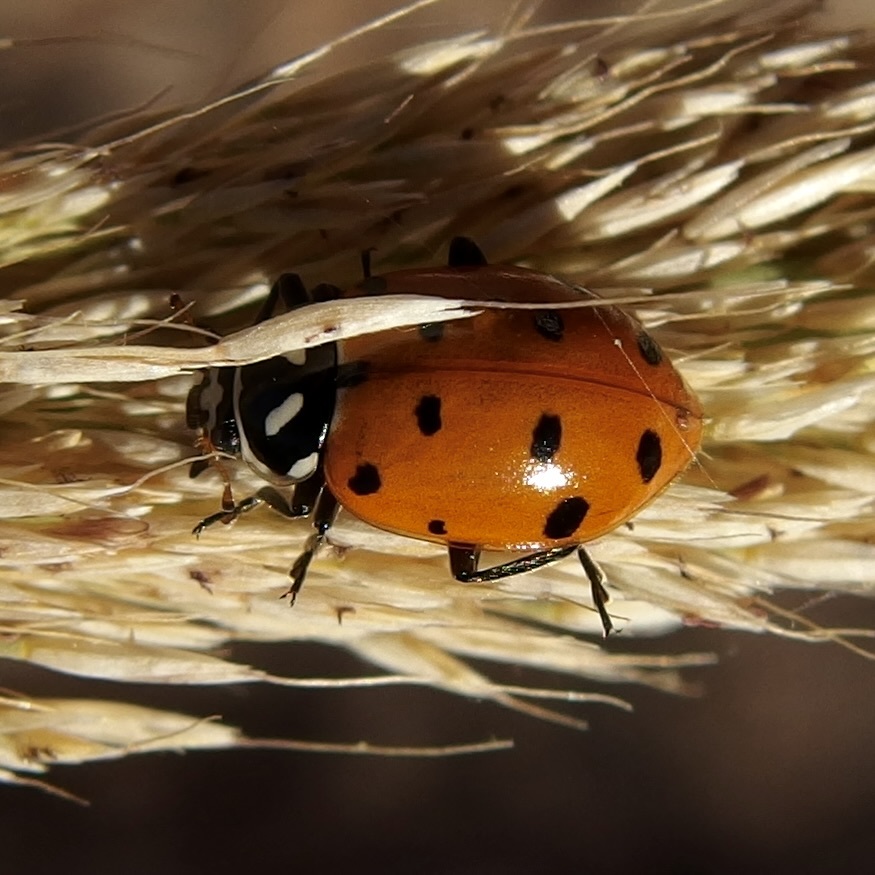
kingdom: Animalia
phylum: Arthropoda
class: Insecta
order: Coleoptera
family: Coccinellidae
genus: Hippodamia
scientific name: Hippodamia convergens
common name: Convergent lady beetle
